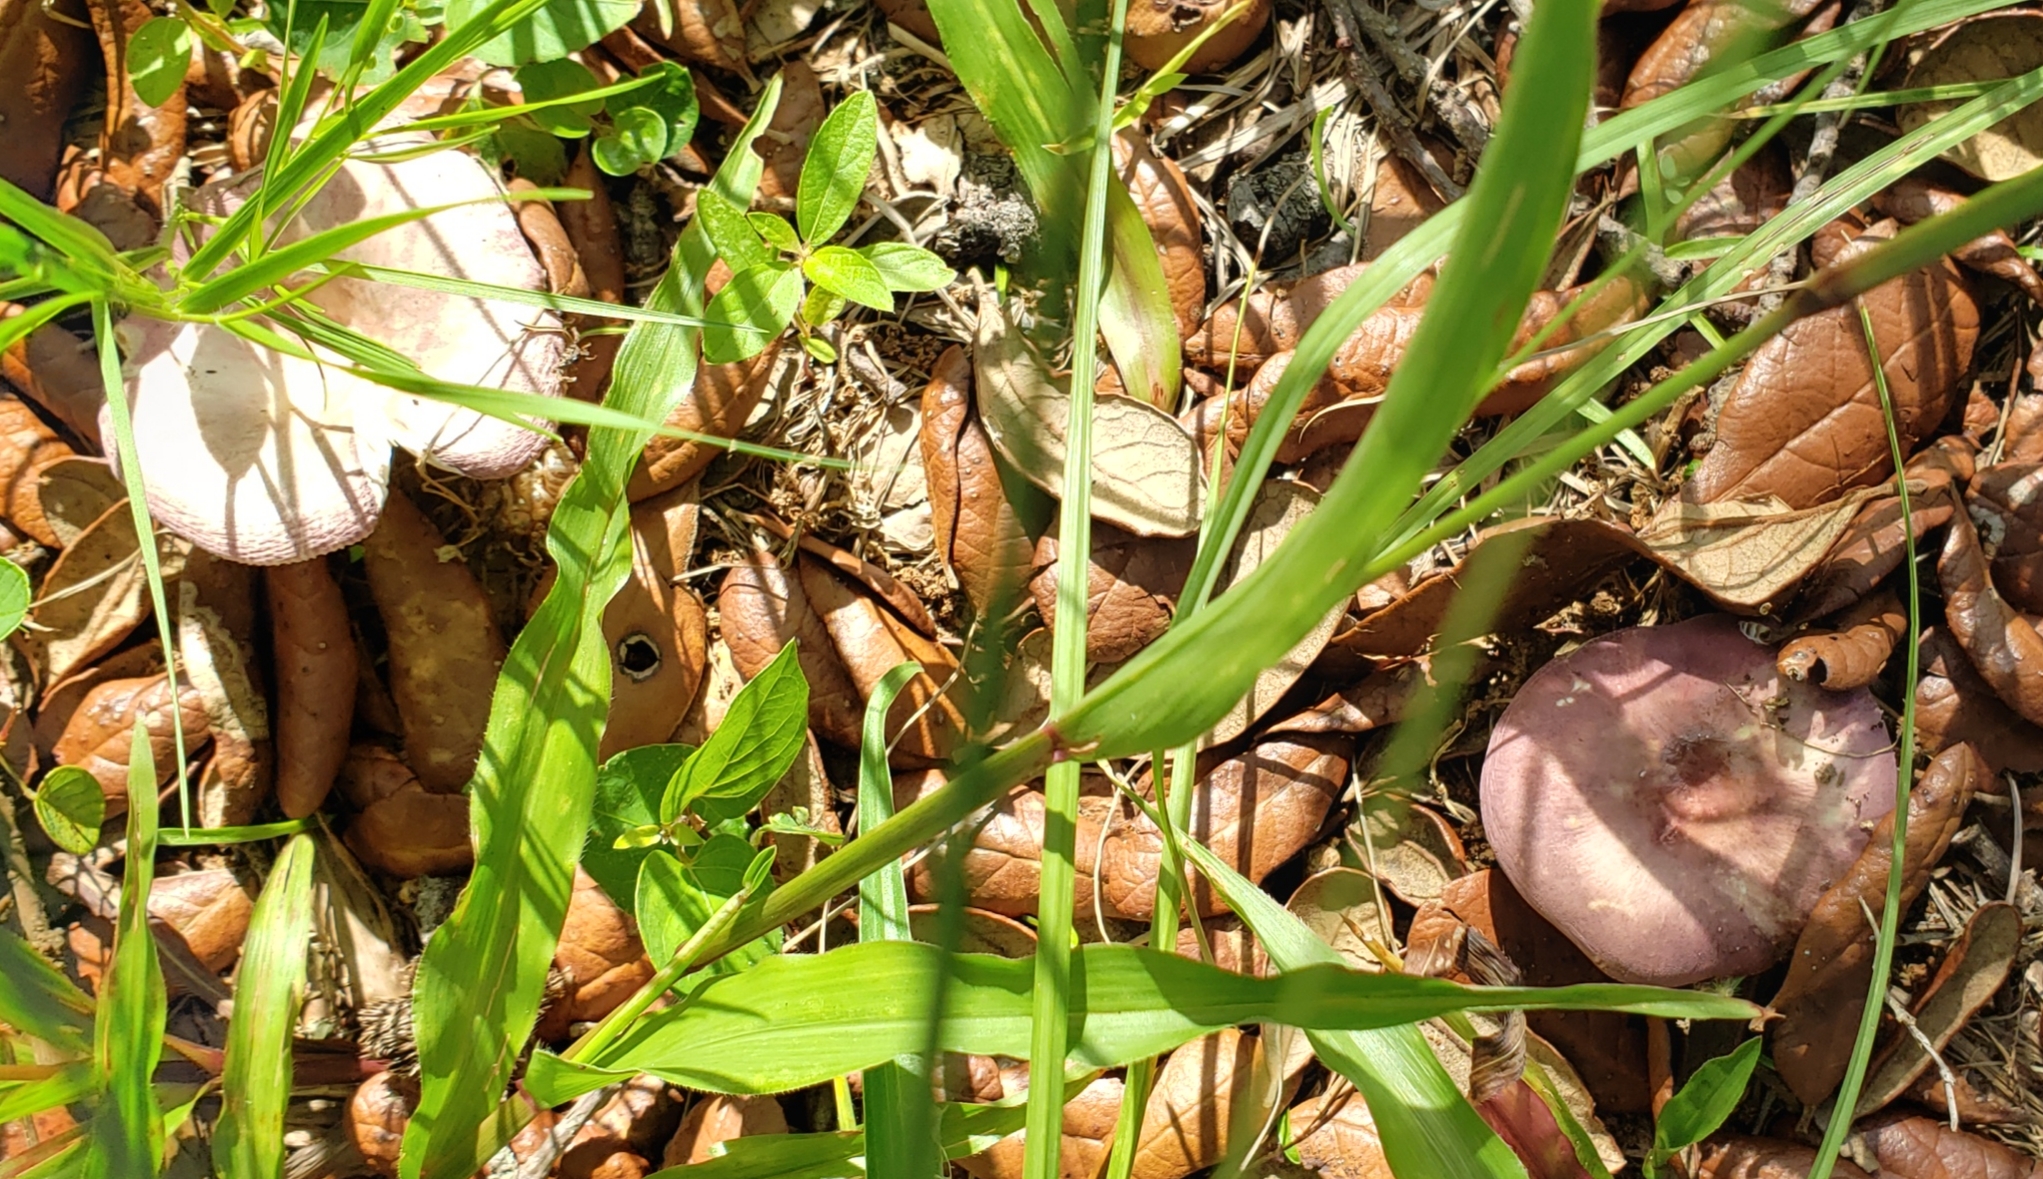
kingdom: Fungi
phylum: Basidiomycota
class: Agaricomycetes
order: Russulales
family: Russulaceae
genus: Russula
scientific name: Russula
